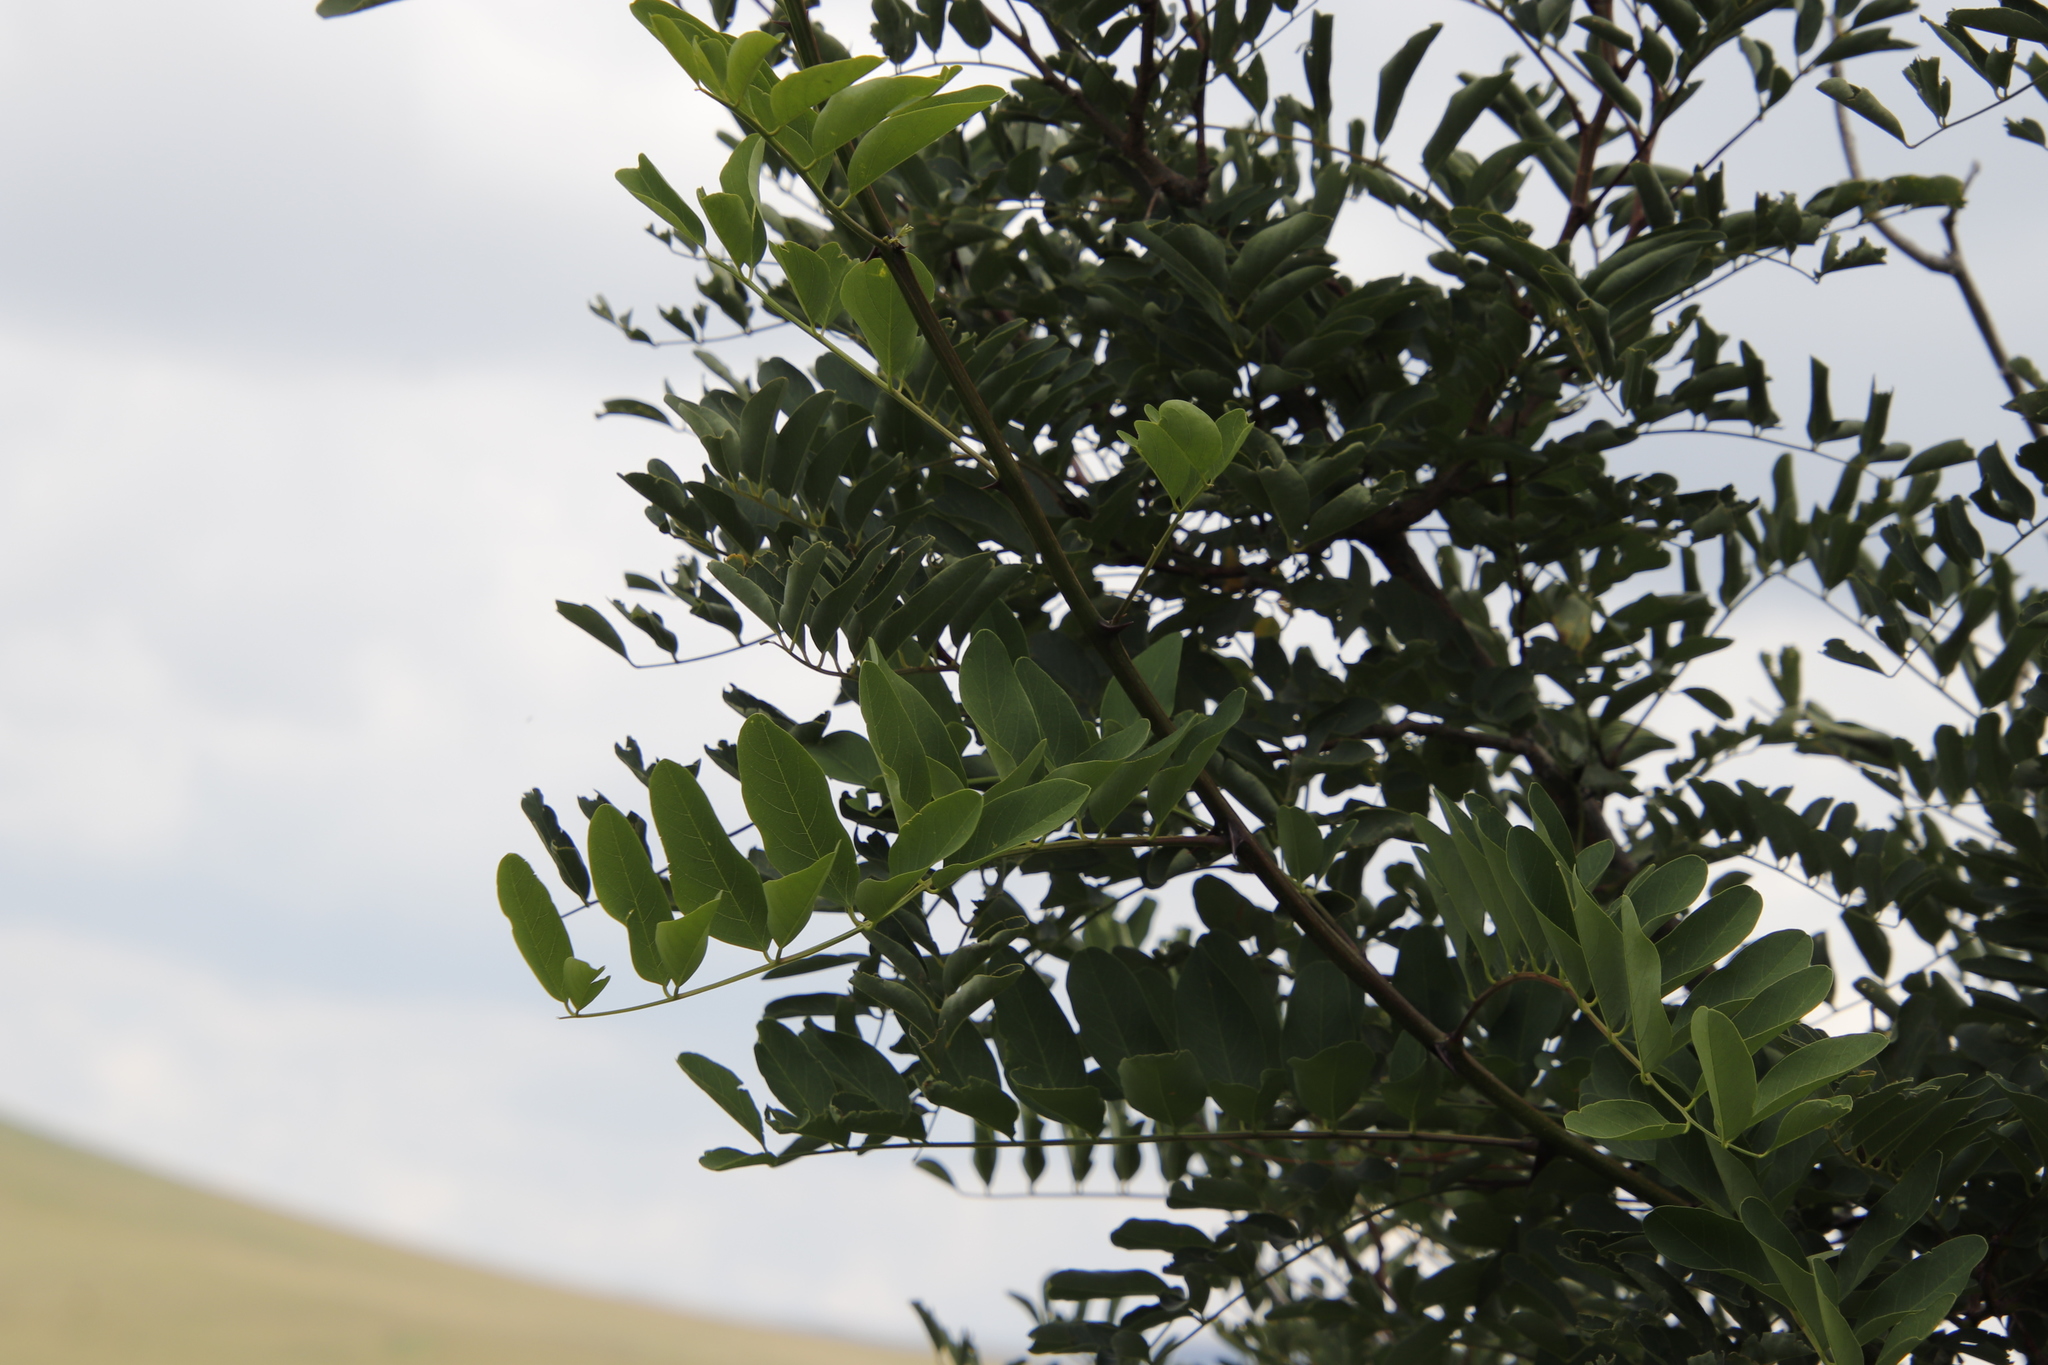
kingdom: Plantae
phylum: Tracheophyta
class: Magnoliopsida
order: Fabales
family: Fabaceae
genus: Robinia
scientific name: Robinia pseudoacacia
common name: Black locust
